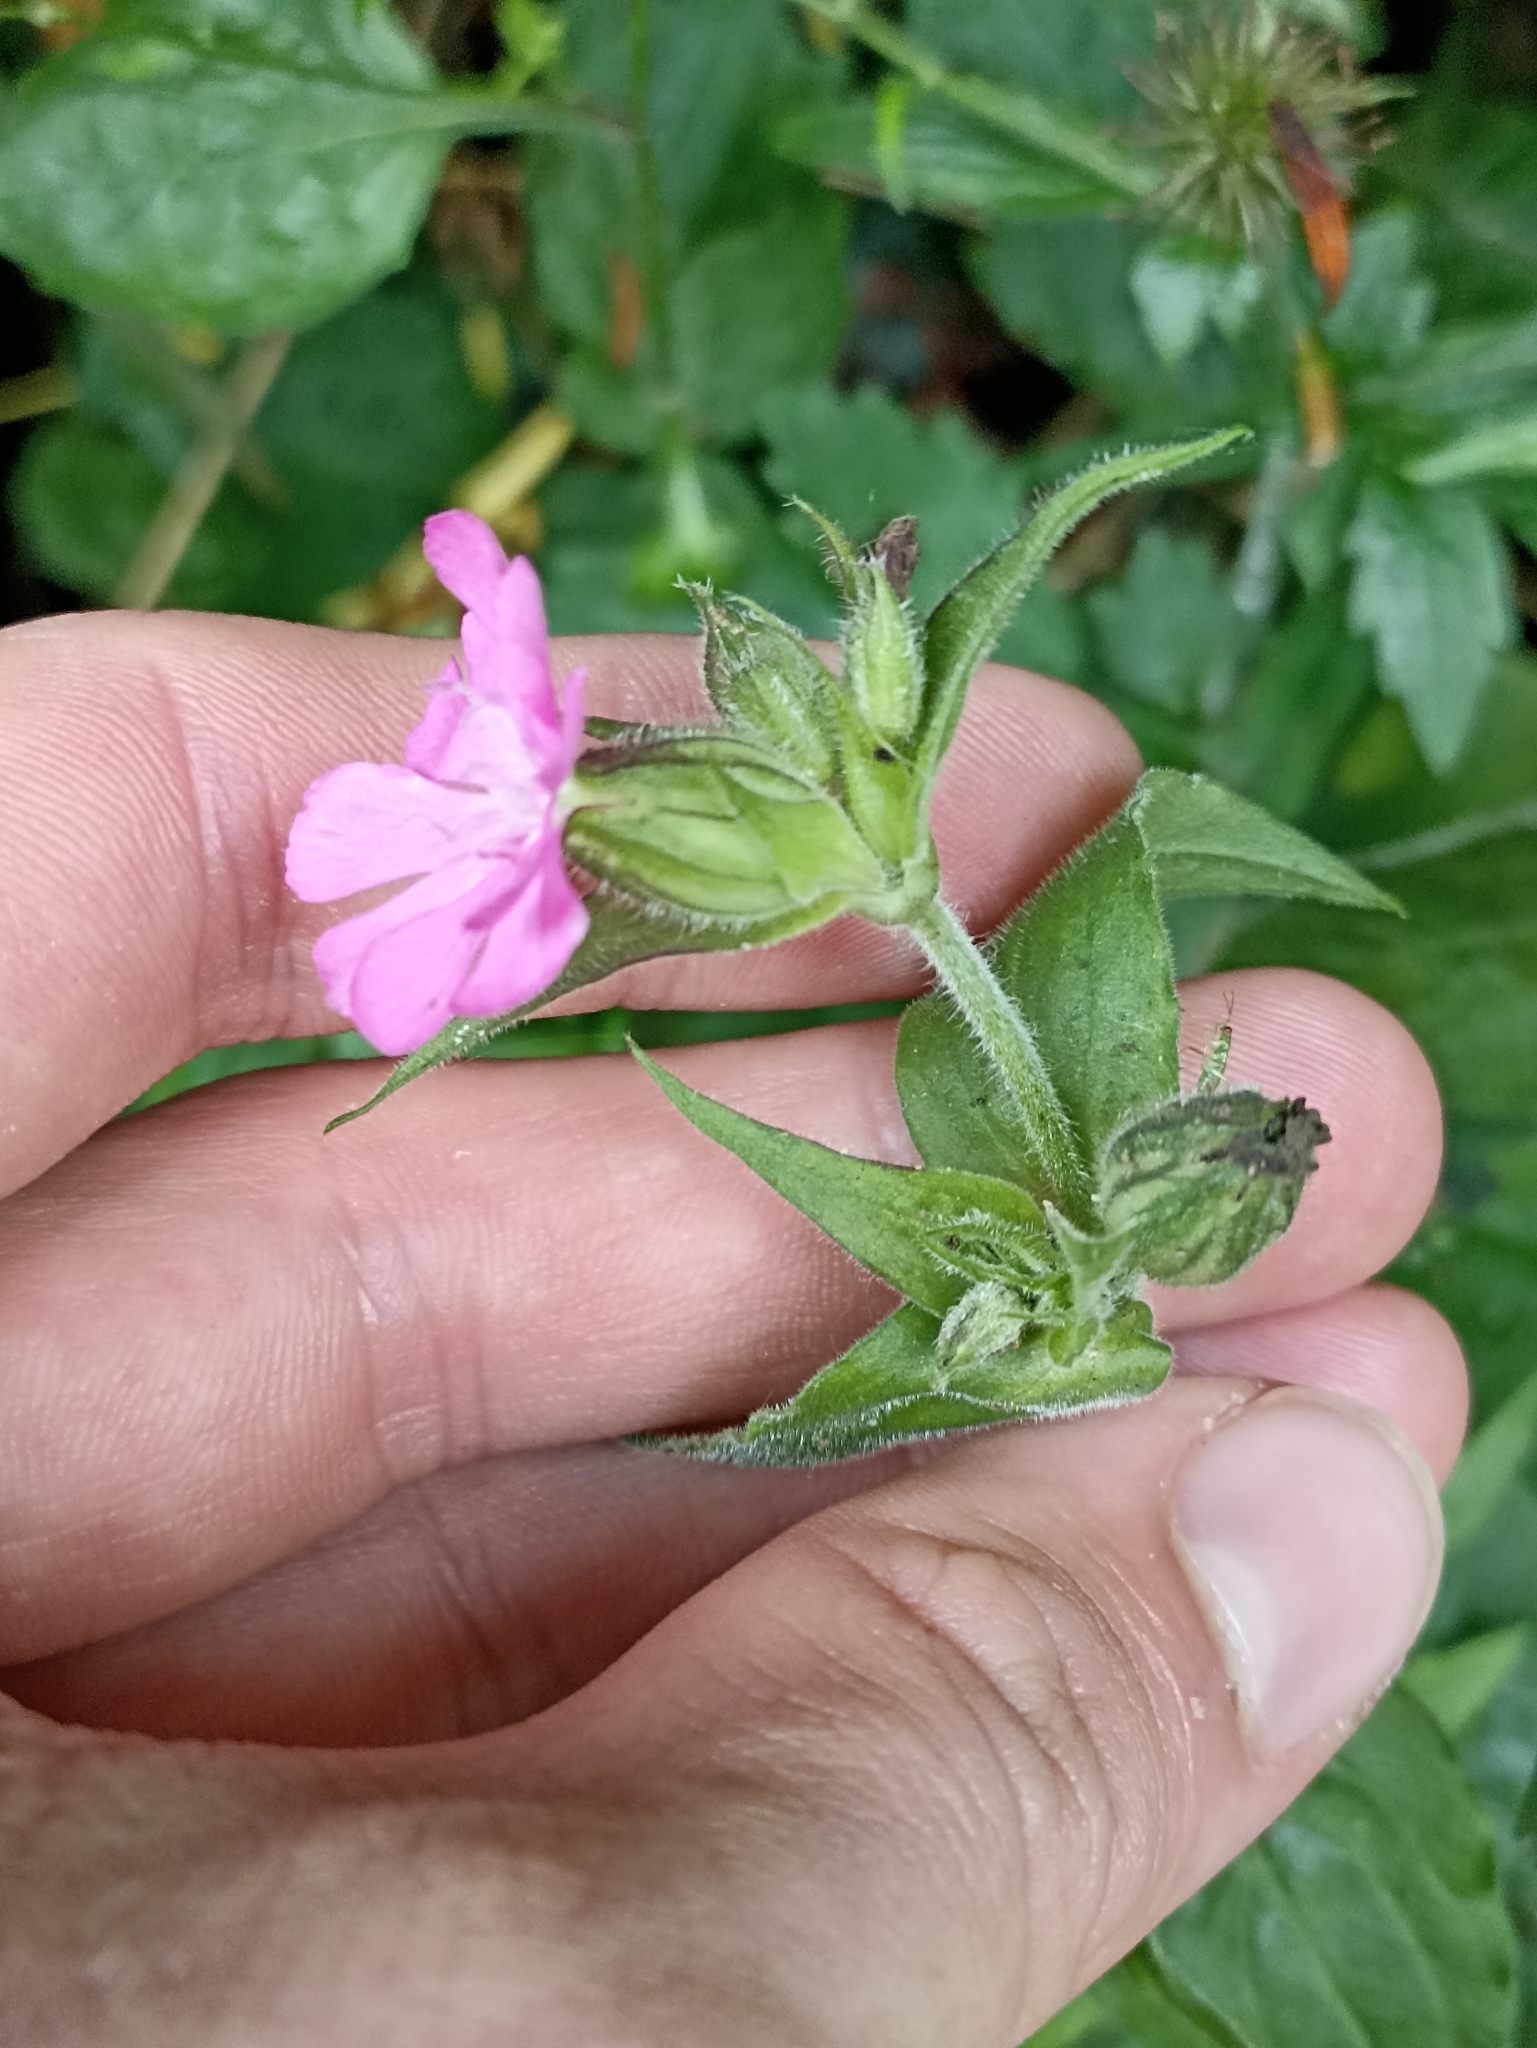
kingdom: Plantae
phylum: Tracheophyta
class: Magnoliopsida
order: Caryophyllales
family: Caryophyllaceae
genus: Silene
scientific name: Silene dioica
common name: Red campion
